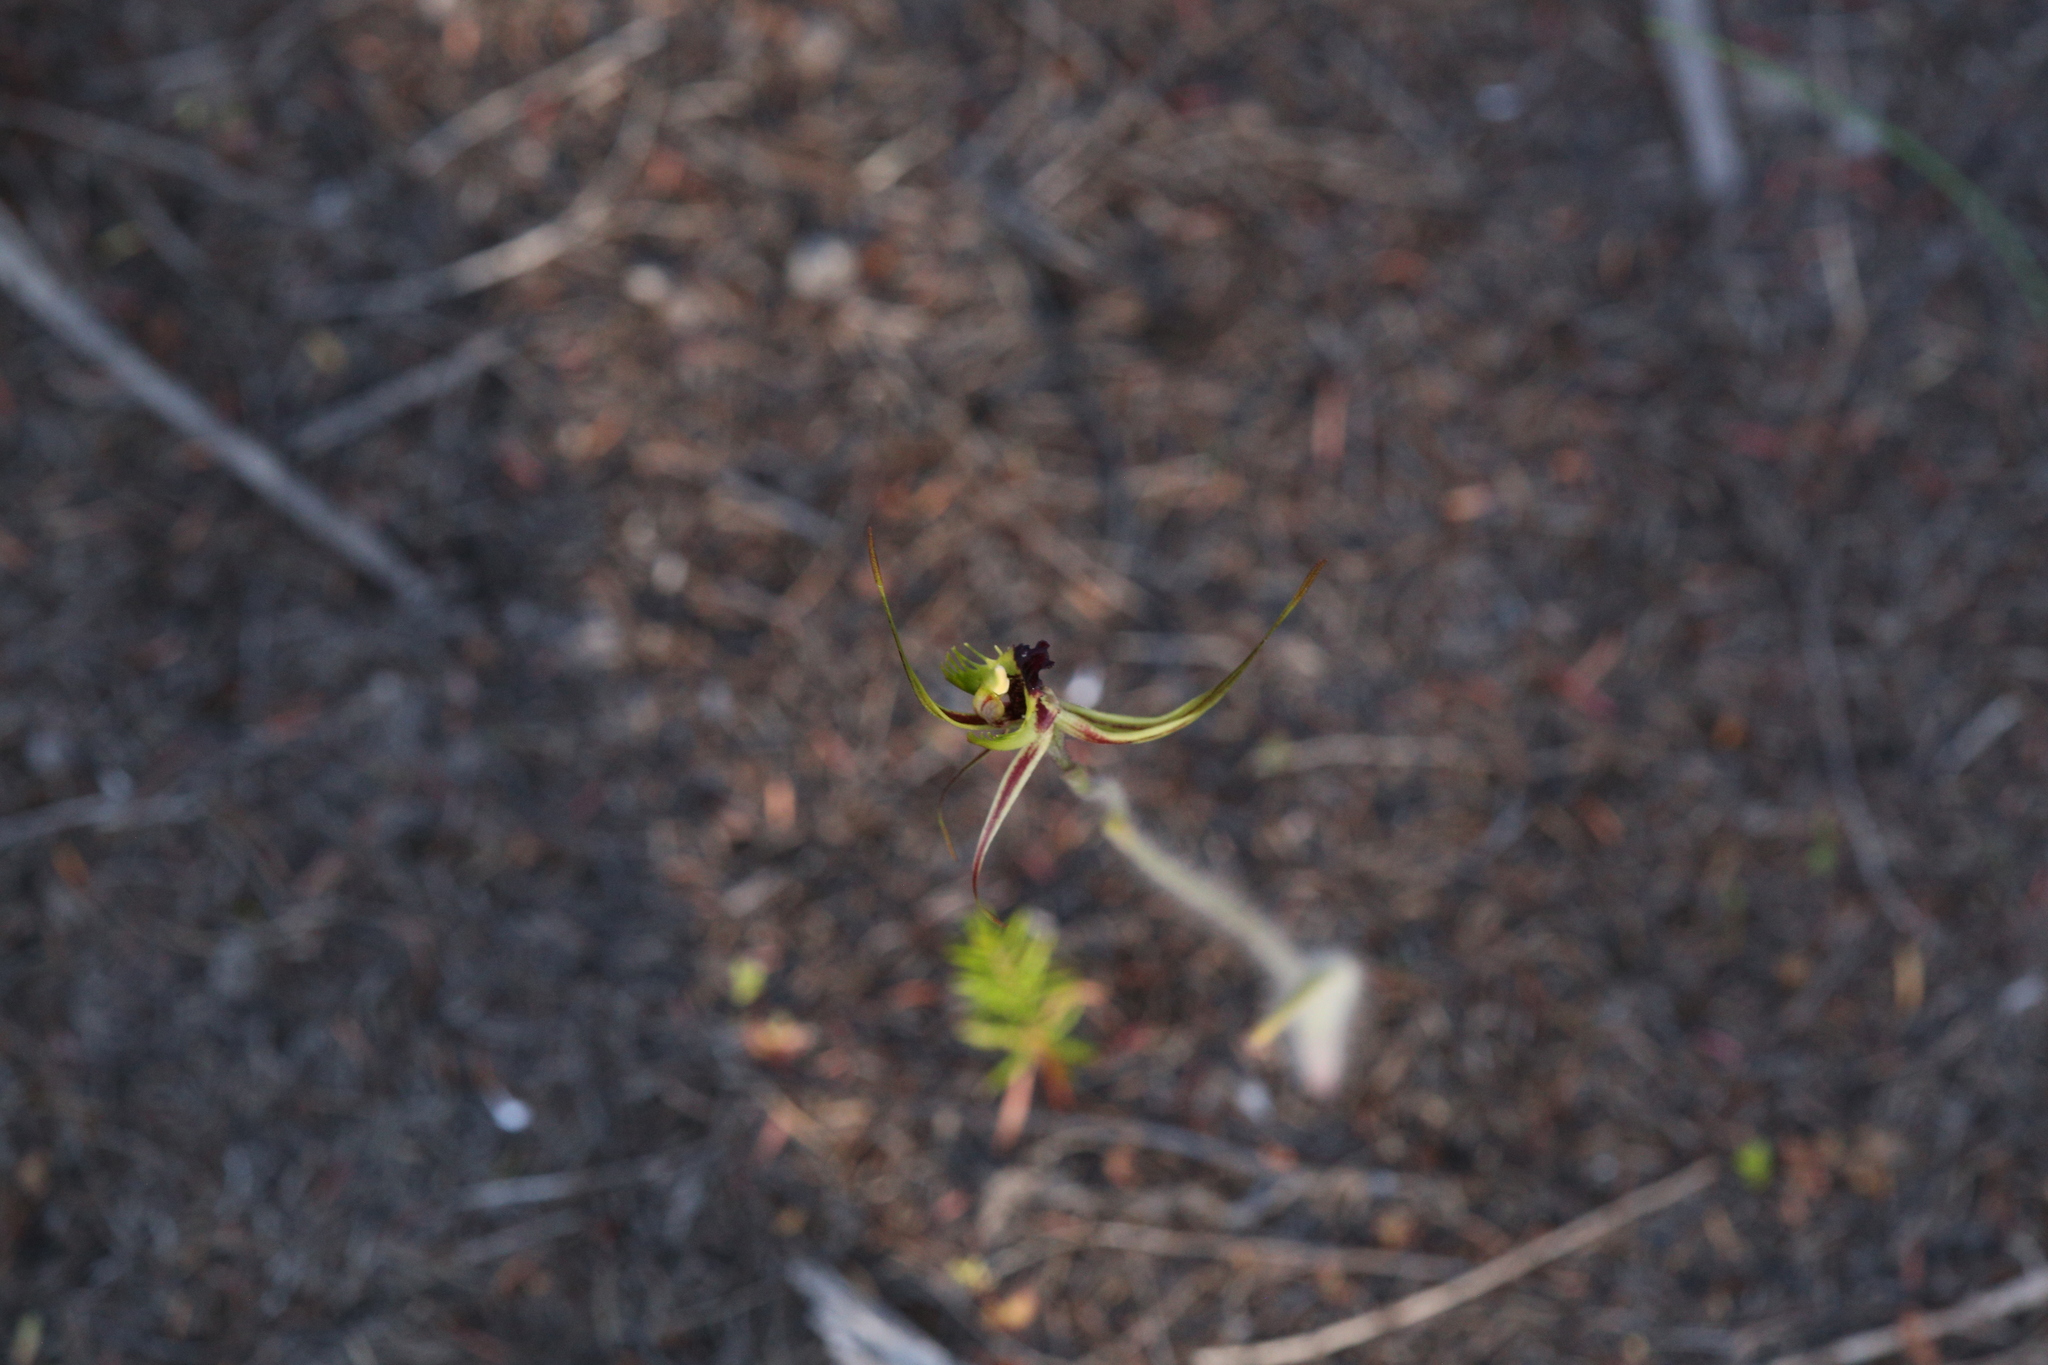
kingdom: Plantae
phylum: Tracheophyta
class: Liliopsida
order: Asparagales
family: Orchidaceae
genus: Caladenia
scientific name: Caladenia attingens
